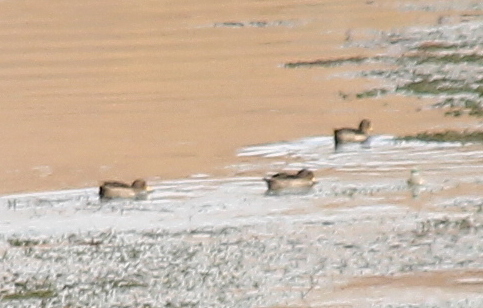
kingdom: Animalia
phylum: Chordata
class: Aves
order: Anseriformes
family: Anatidae
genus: Anas
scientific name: Anas flavirostris
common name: Yellow-billed teal
